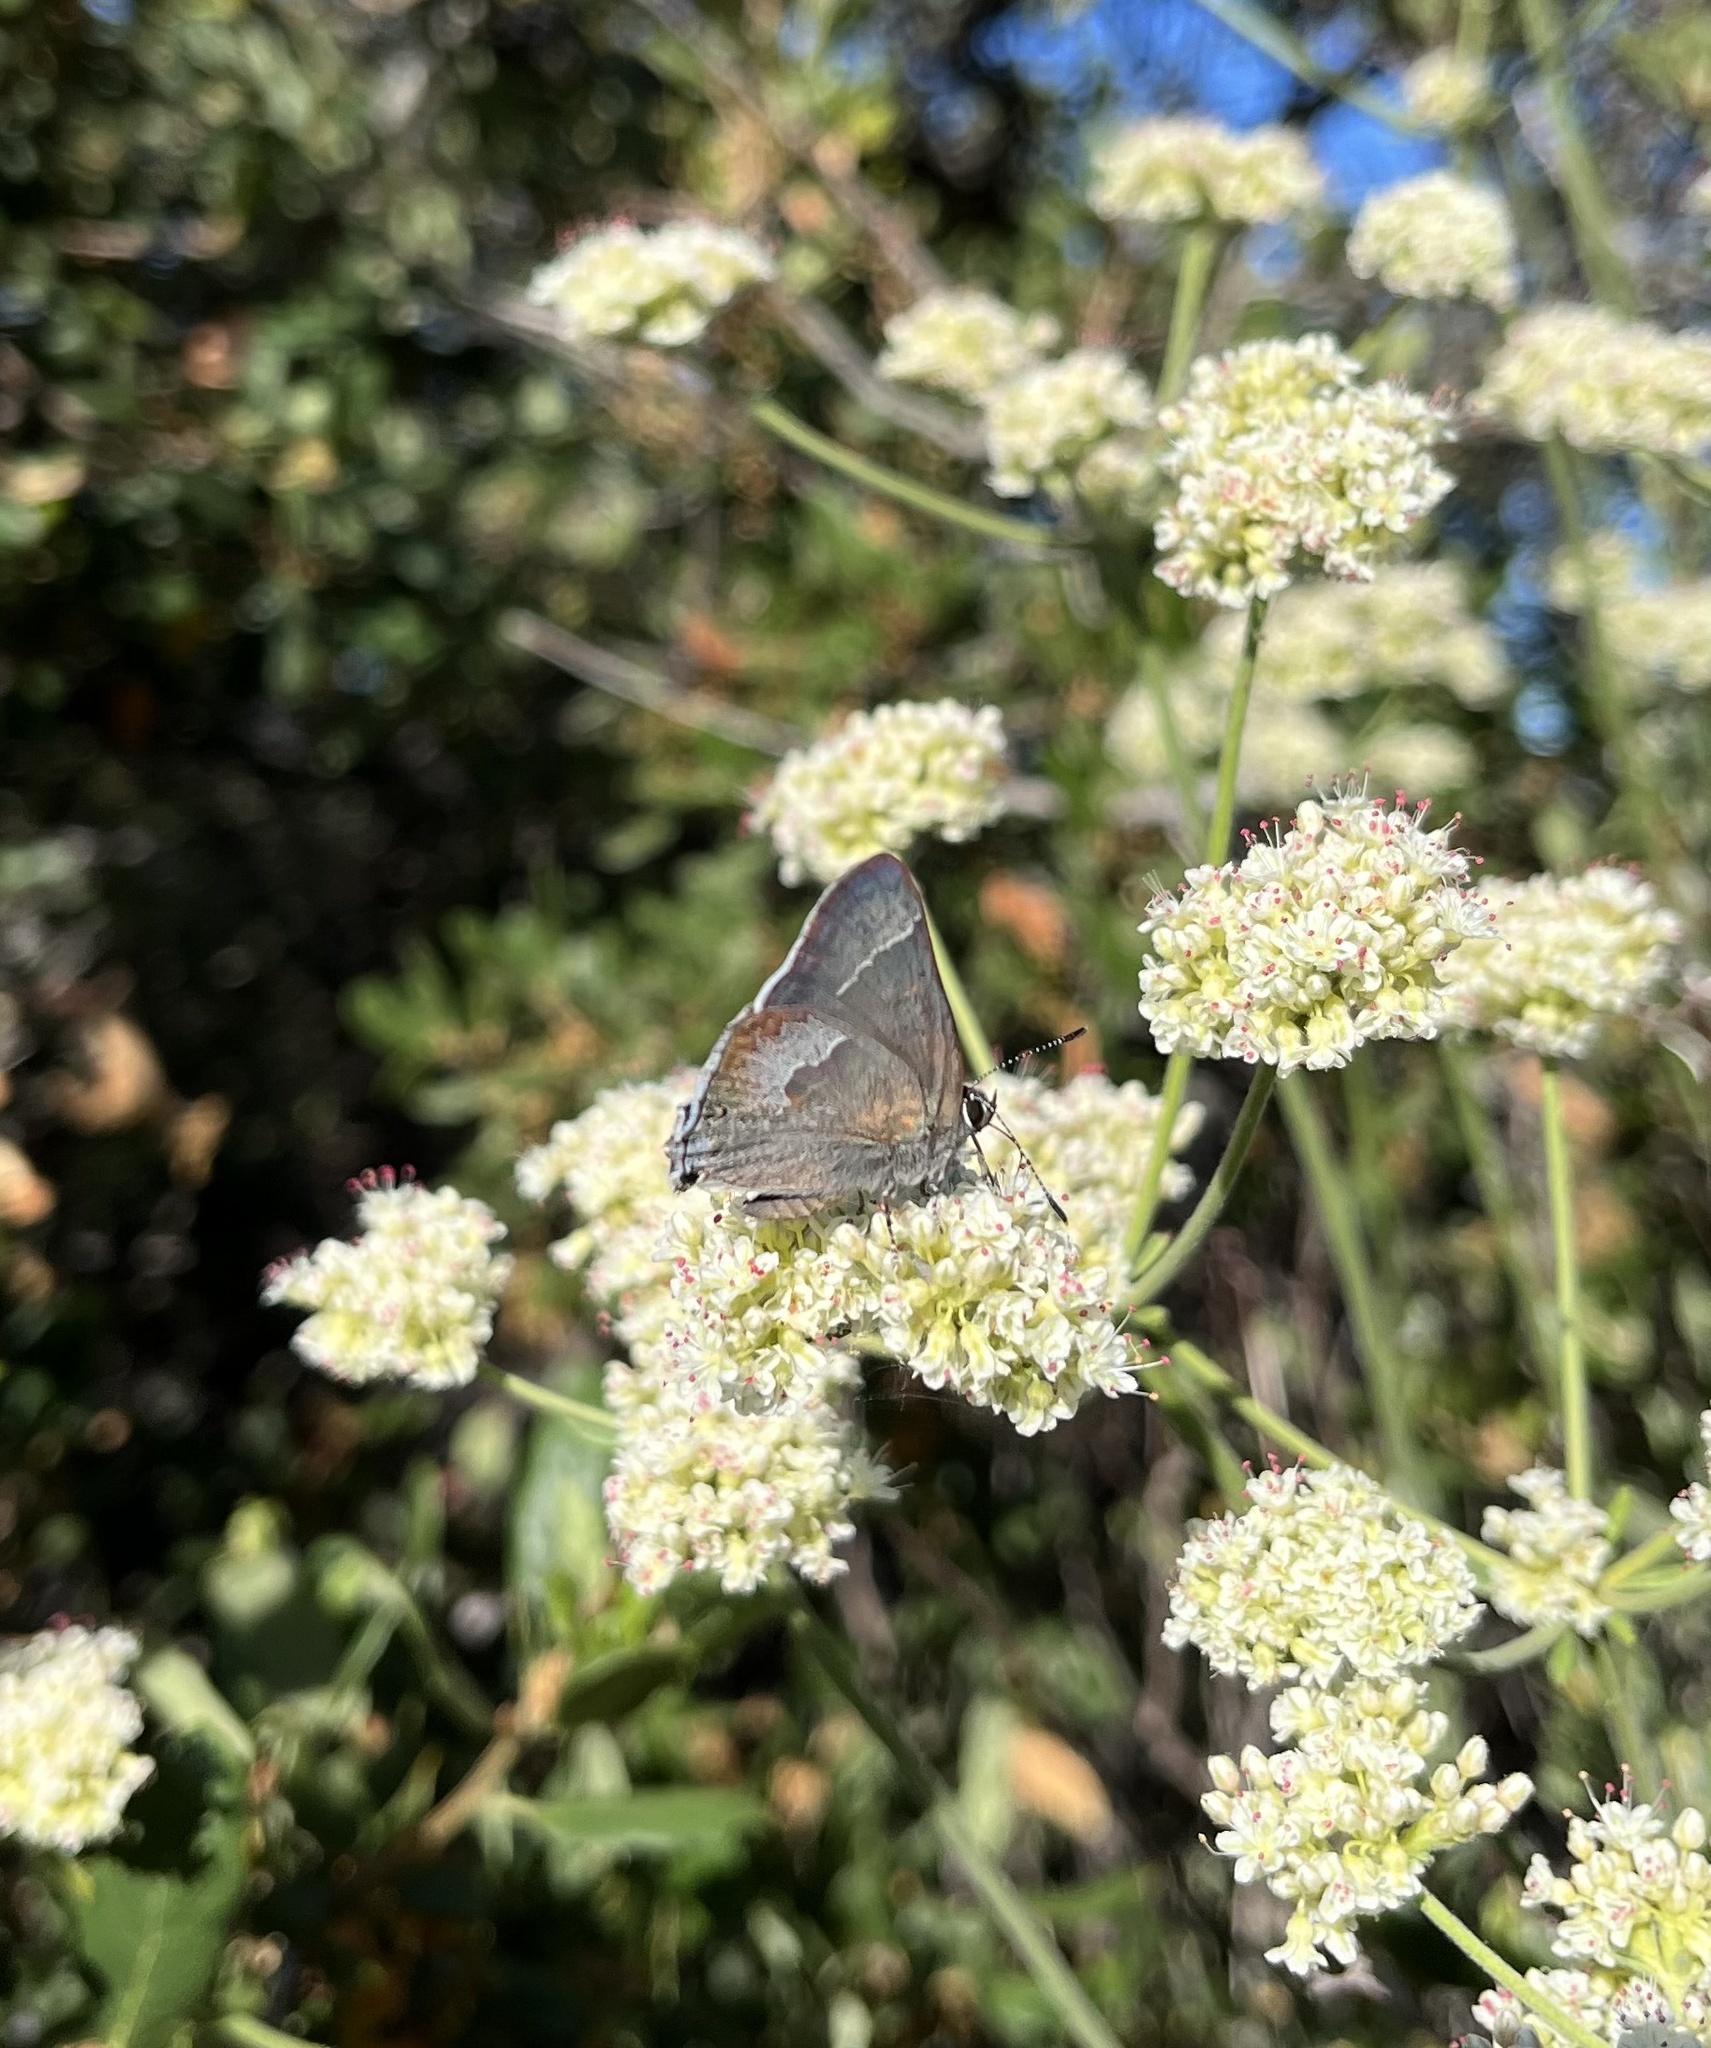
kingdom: Animalia
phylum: Arthropoda
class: Insecta
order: Lepidoptera
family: Lycaenidae
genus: Thecla
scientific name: Thecla tetra
